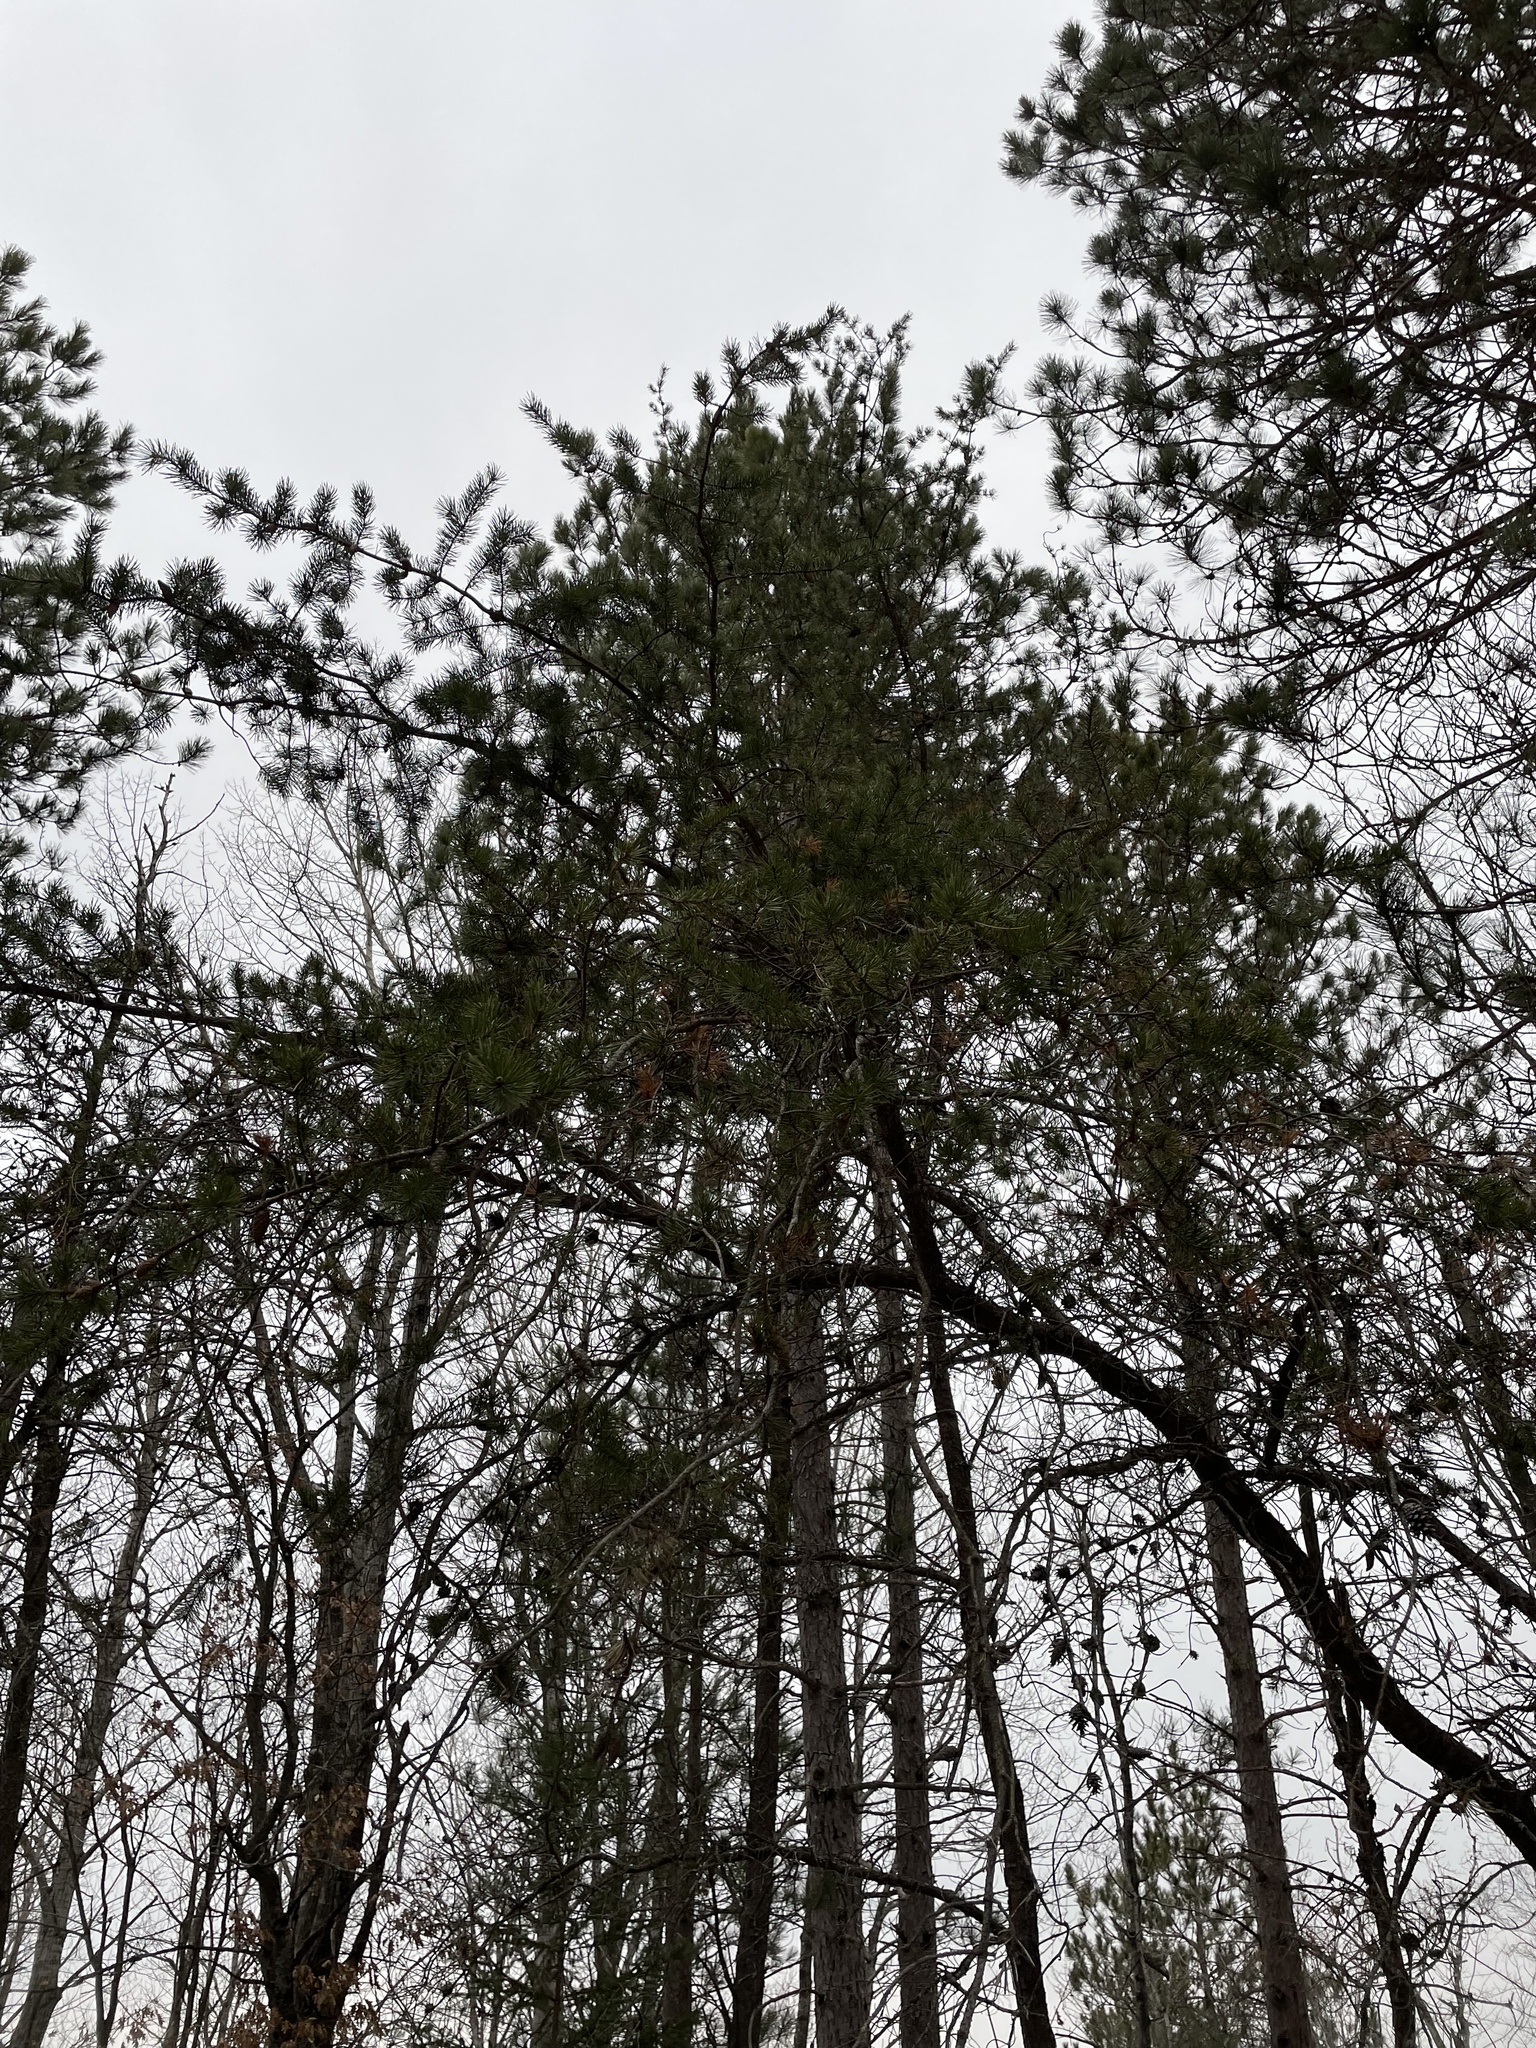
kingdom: Plantae
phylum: Tracheophyta
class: Pinopsida
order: Pinales
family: Pinaceae
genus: Pinus
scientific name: Pinus banksiana
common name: Jack pine
